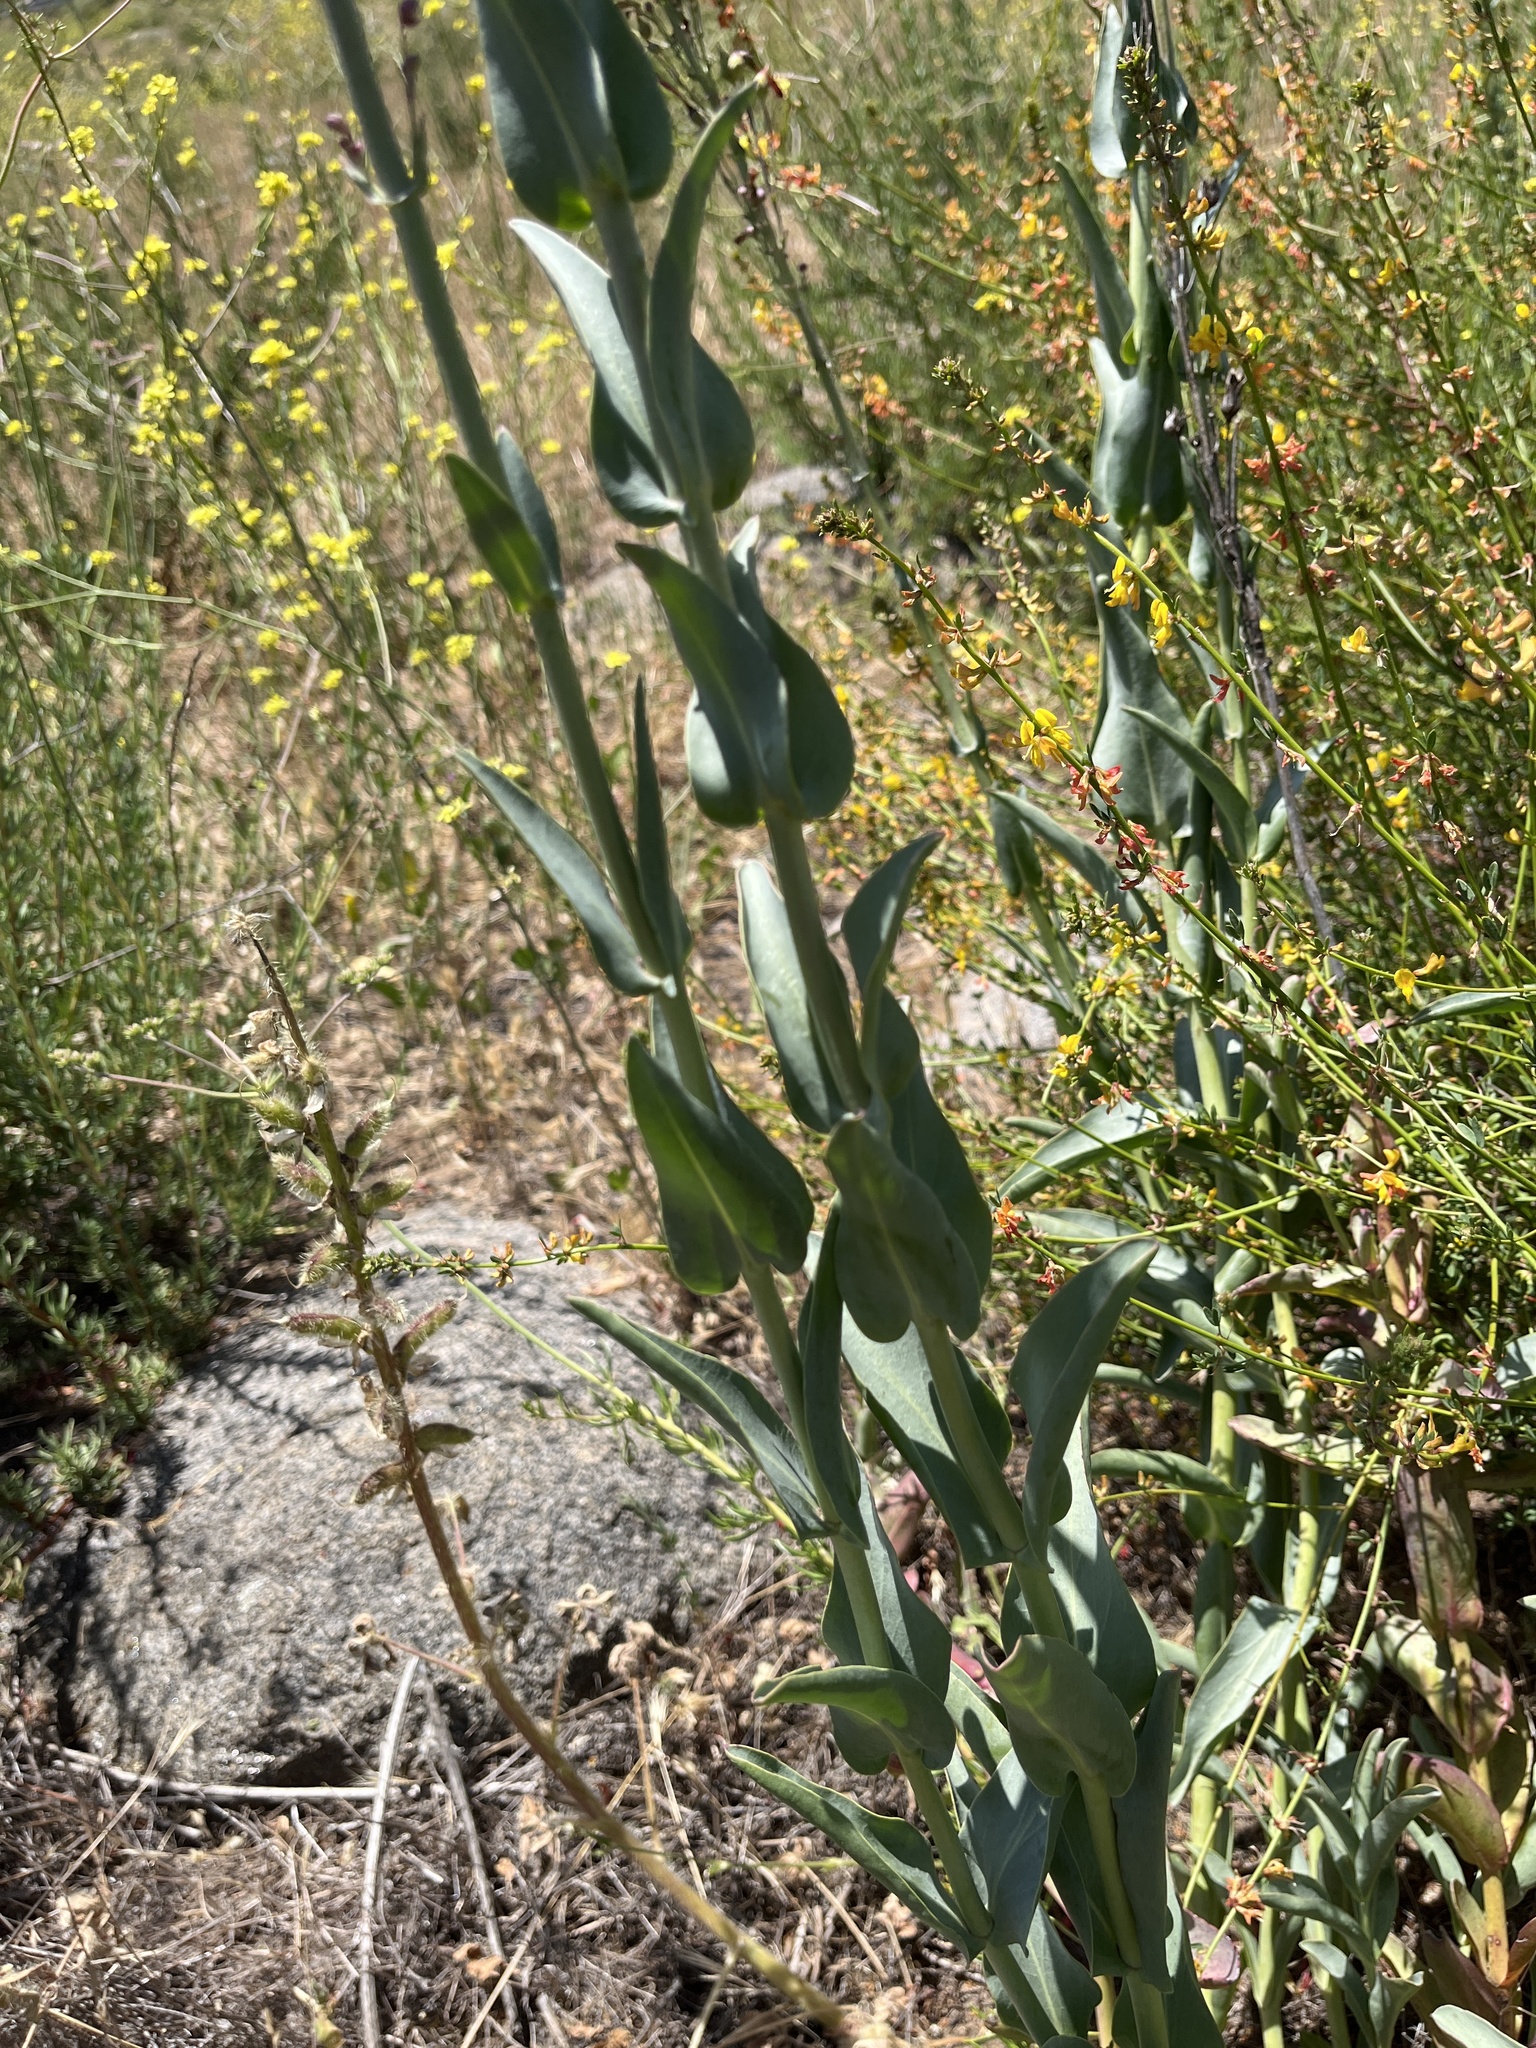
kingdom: Plantae
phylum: Tracheophyta
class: Magnoliopsida
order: Lamiales
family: Plantaginaceae
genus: Penstemon
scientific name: Penstemon centranthifolius
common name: Scarlet bugler
